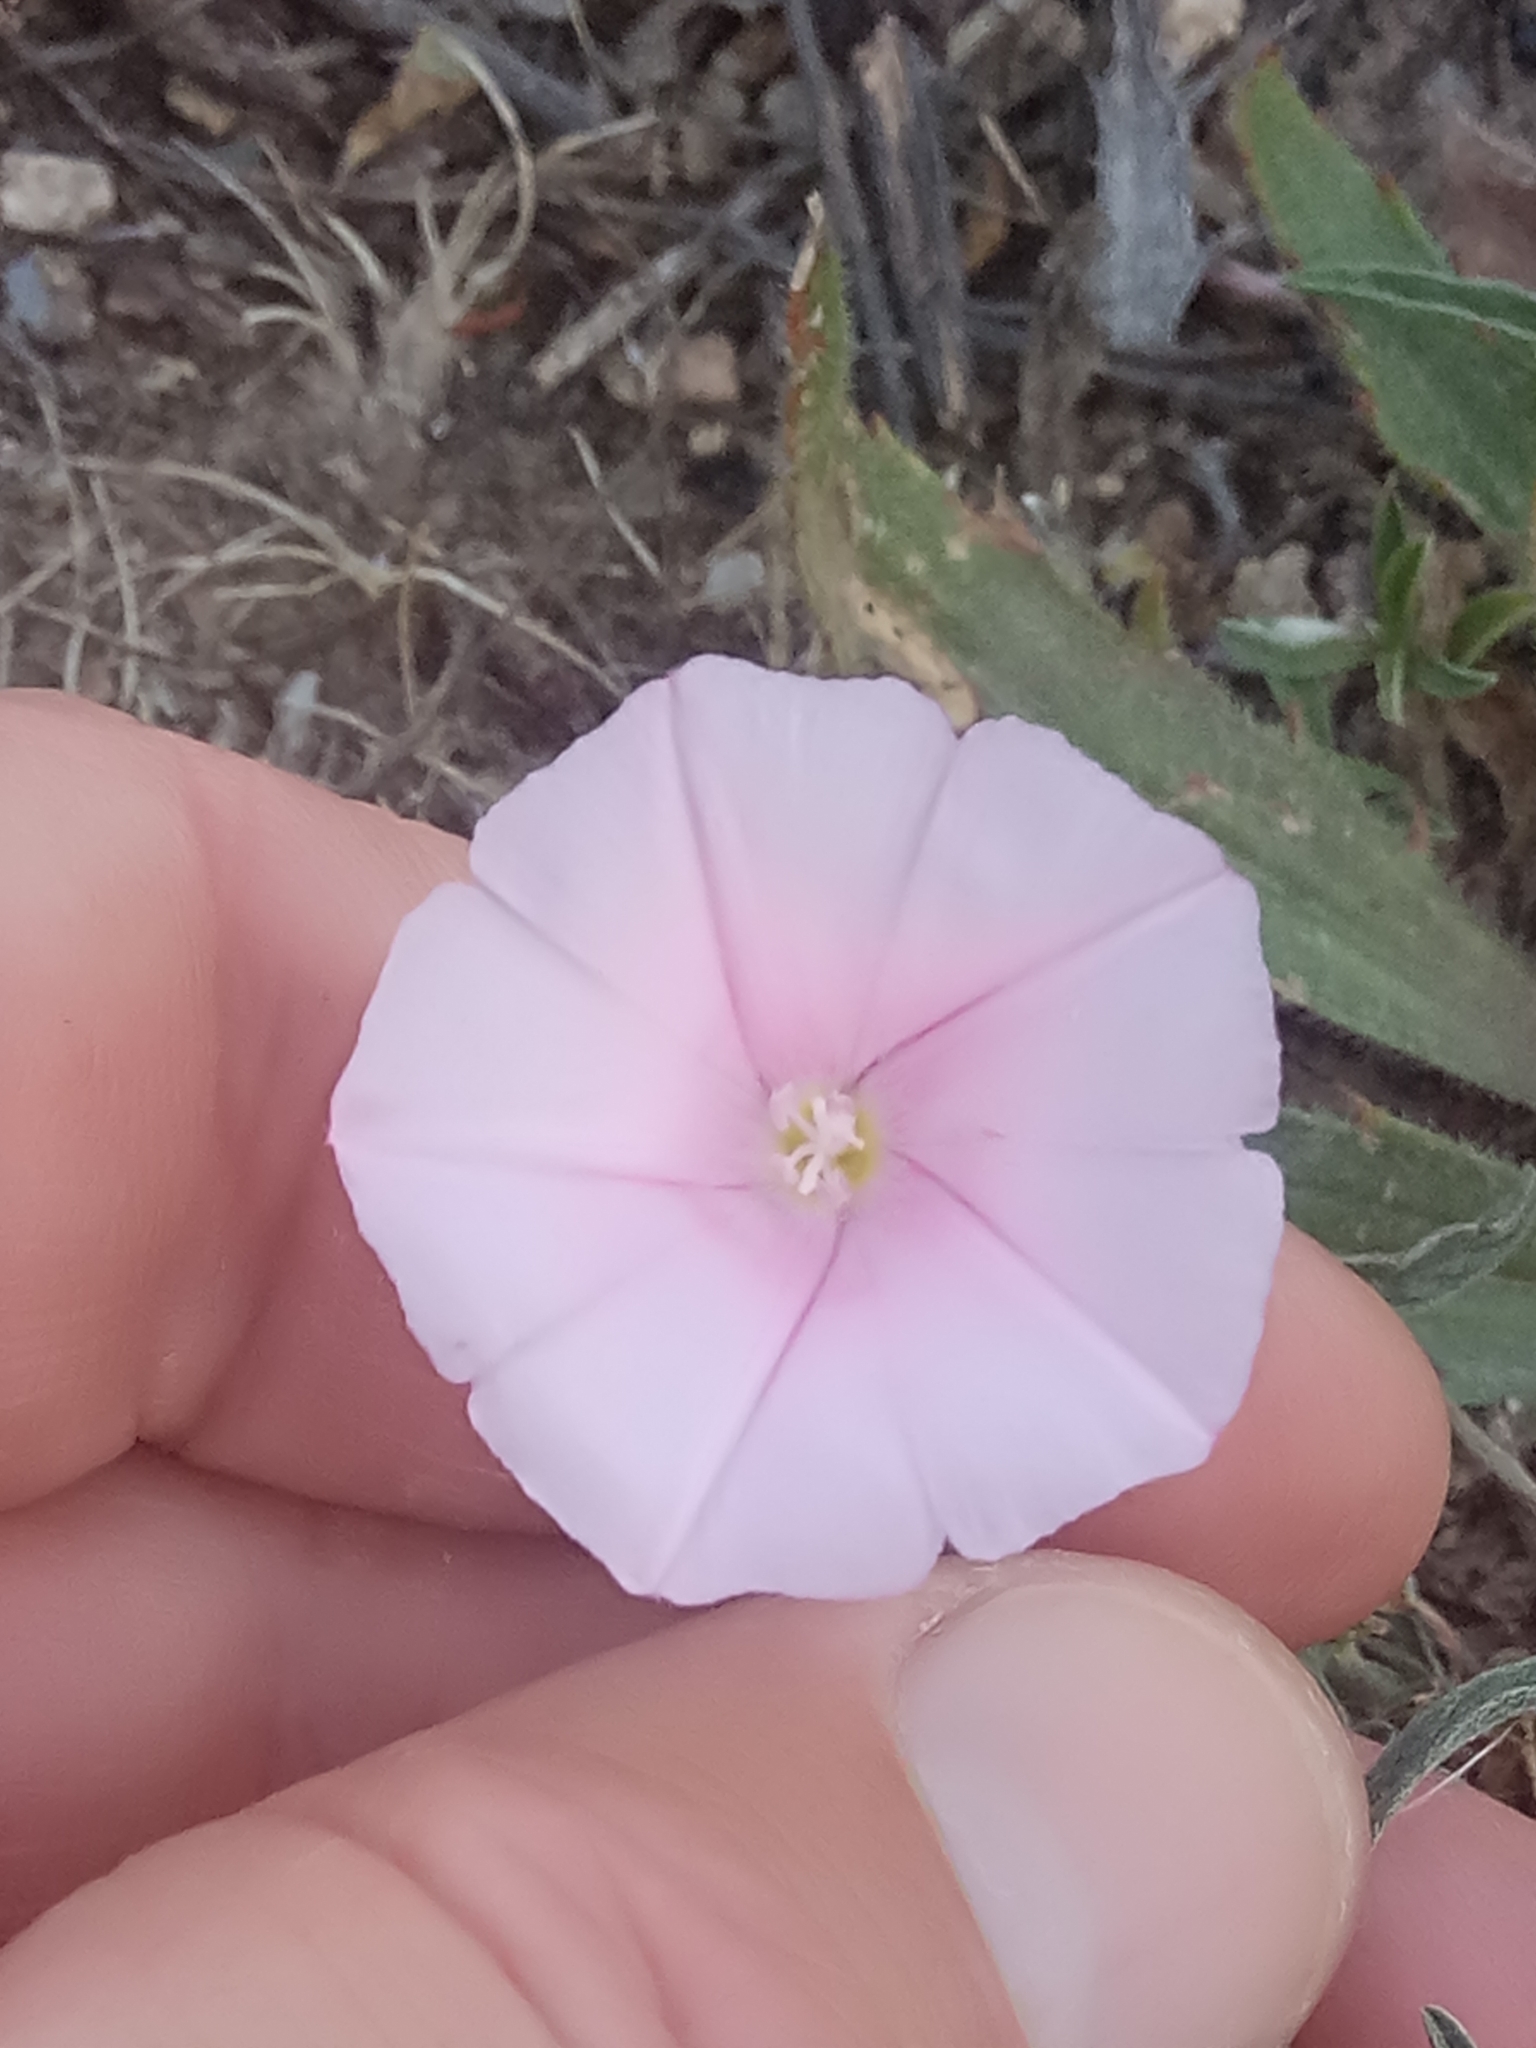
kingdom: Plantae
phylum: Tracheophyta
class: Magnoliopsida
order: Solanales
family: Convolvulaceae
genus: Convolvulus
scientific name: Convolvulus cantabrica
